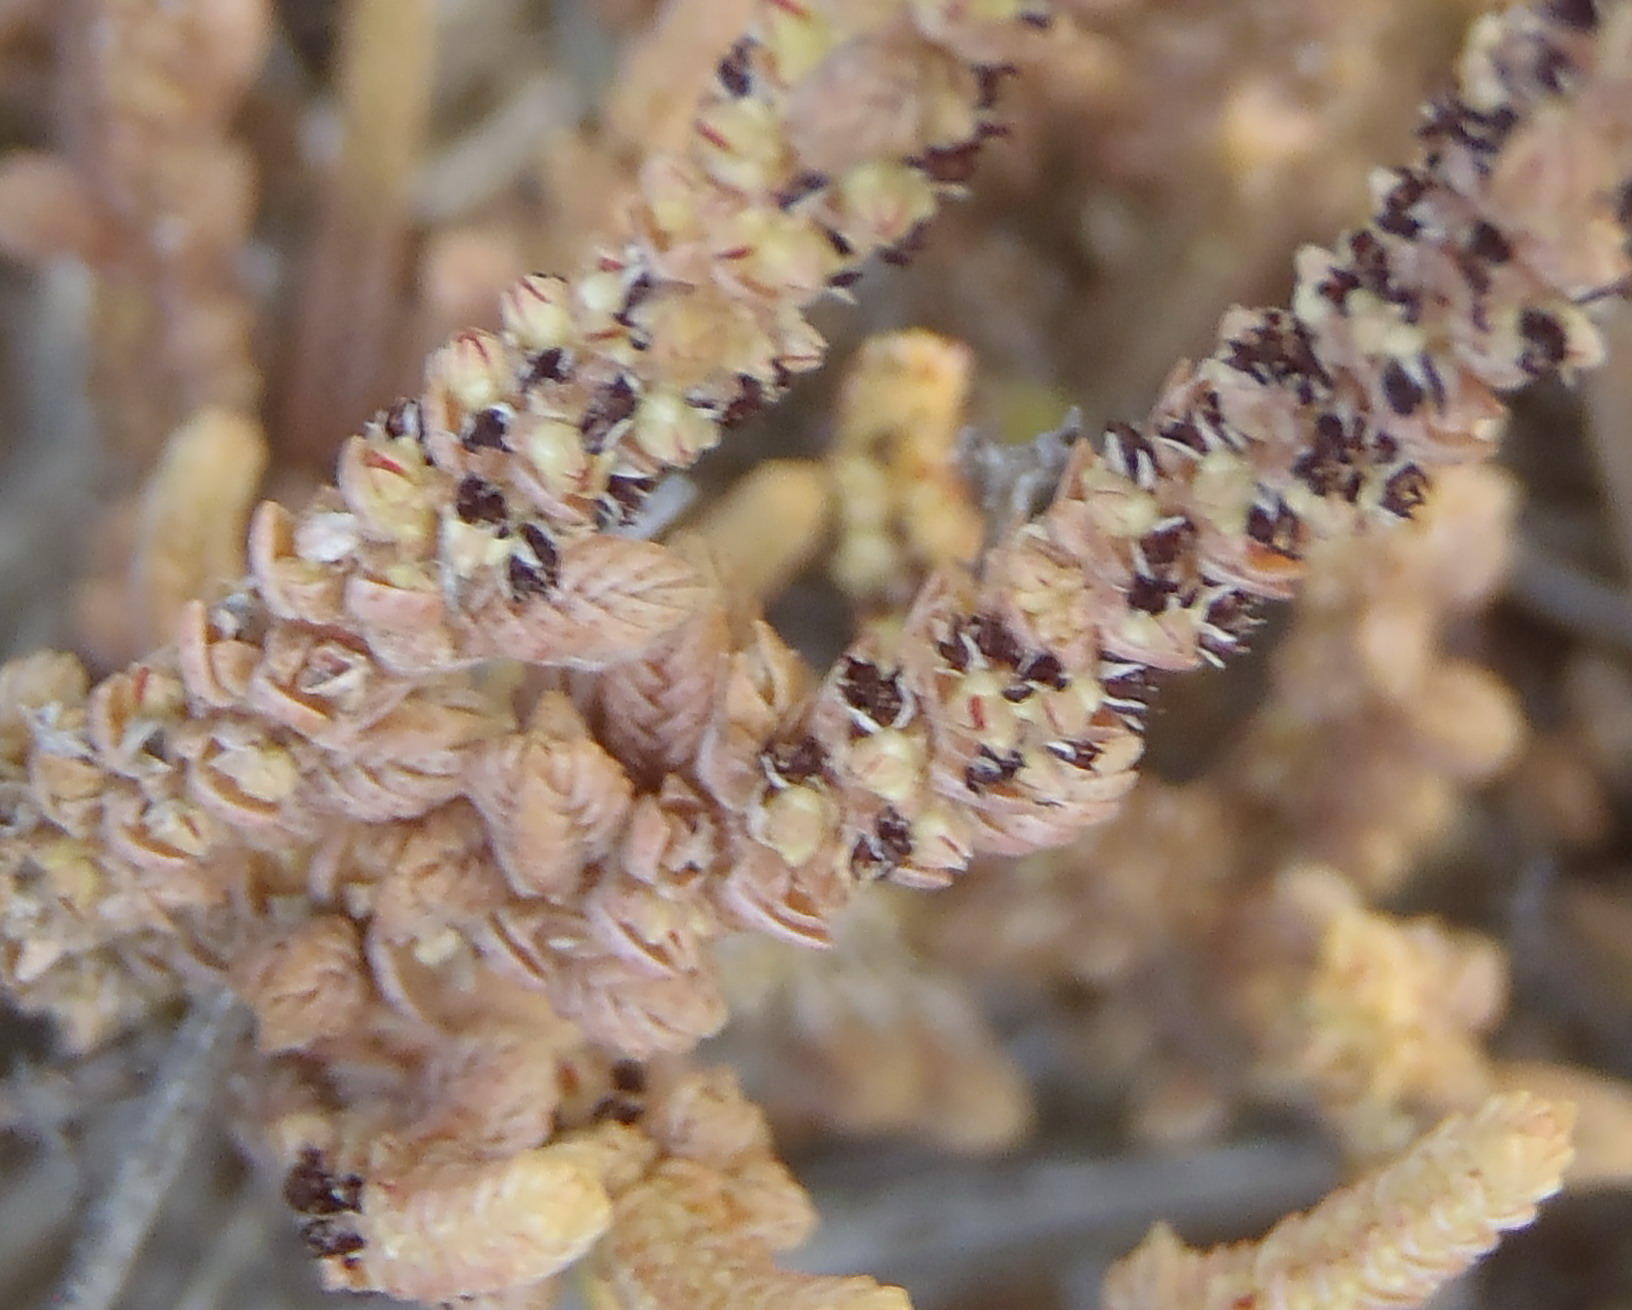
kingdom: Plantae
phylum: Tracheophyta
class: Magnoliopsida
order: Saxifragales
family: Crassulaceae
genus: Crassula
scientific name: Crassula muscosa
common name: Toy-cypress
